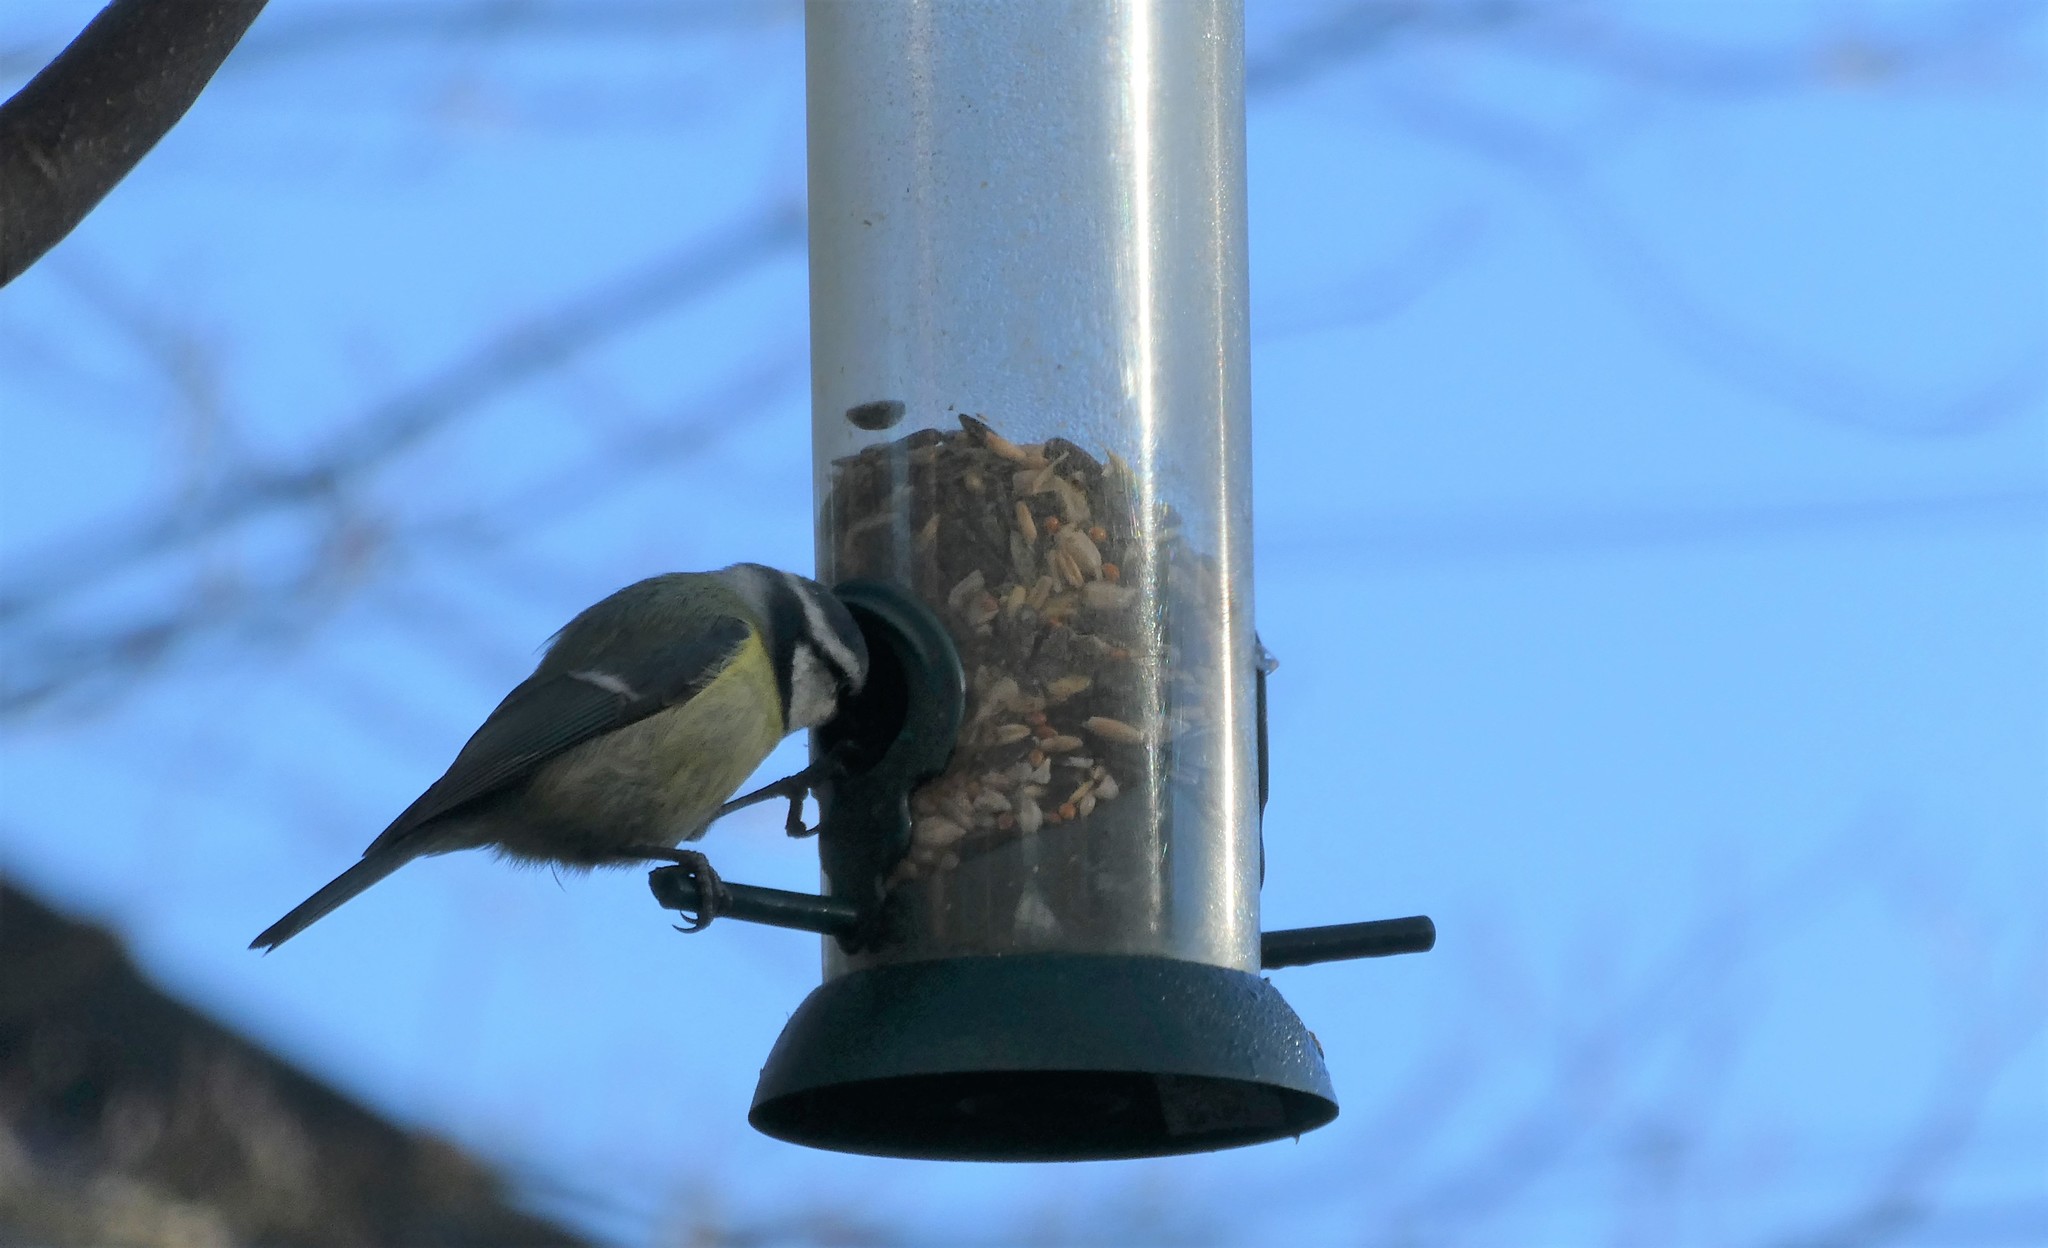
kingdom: Animalia
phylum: Chordata
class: Aves
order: Passeriformes
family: Paridae
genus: Cyanistes
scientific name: Cyanistes caeruleus
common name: Eurasian blue tit
